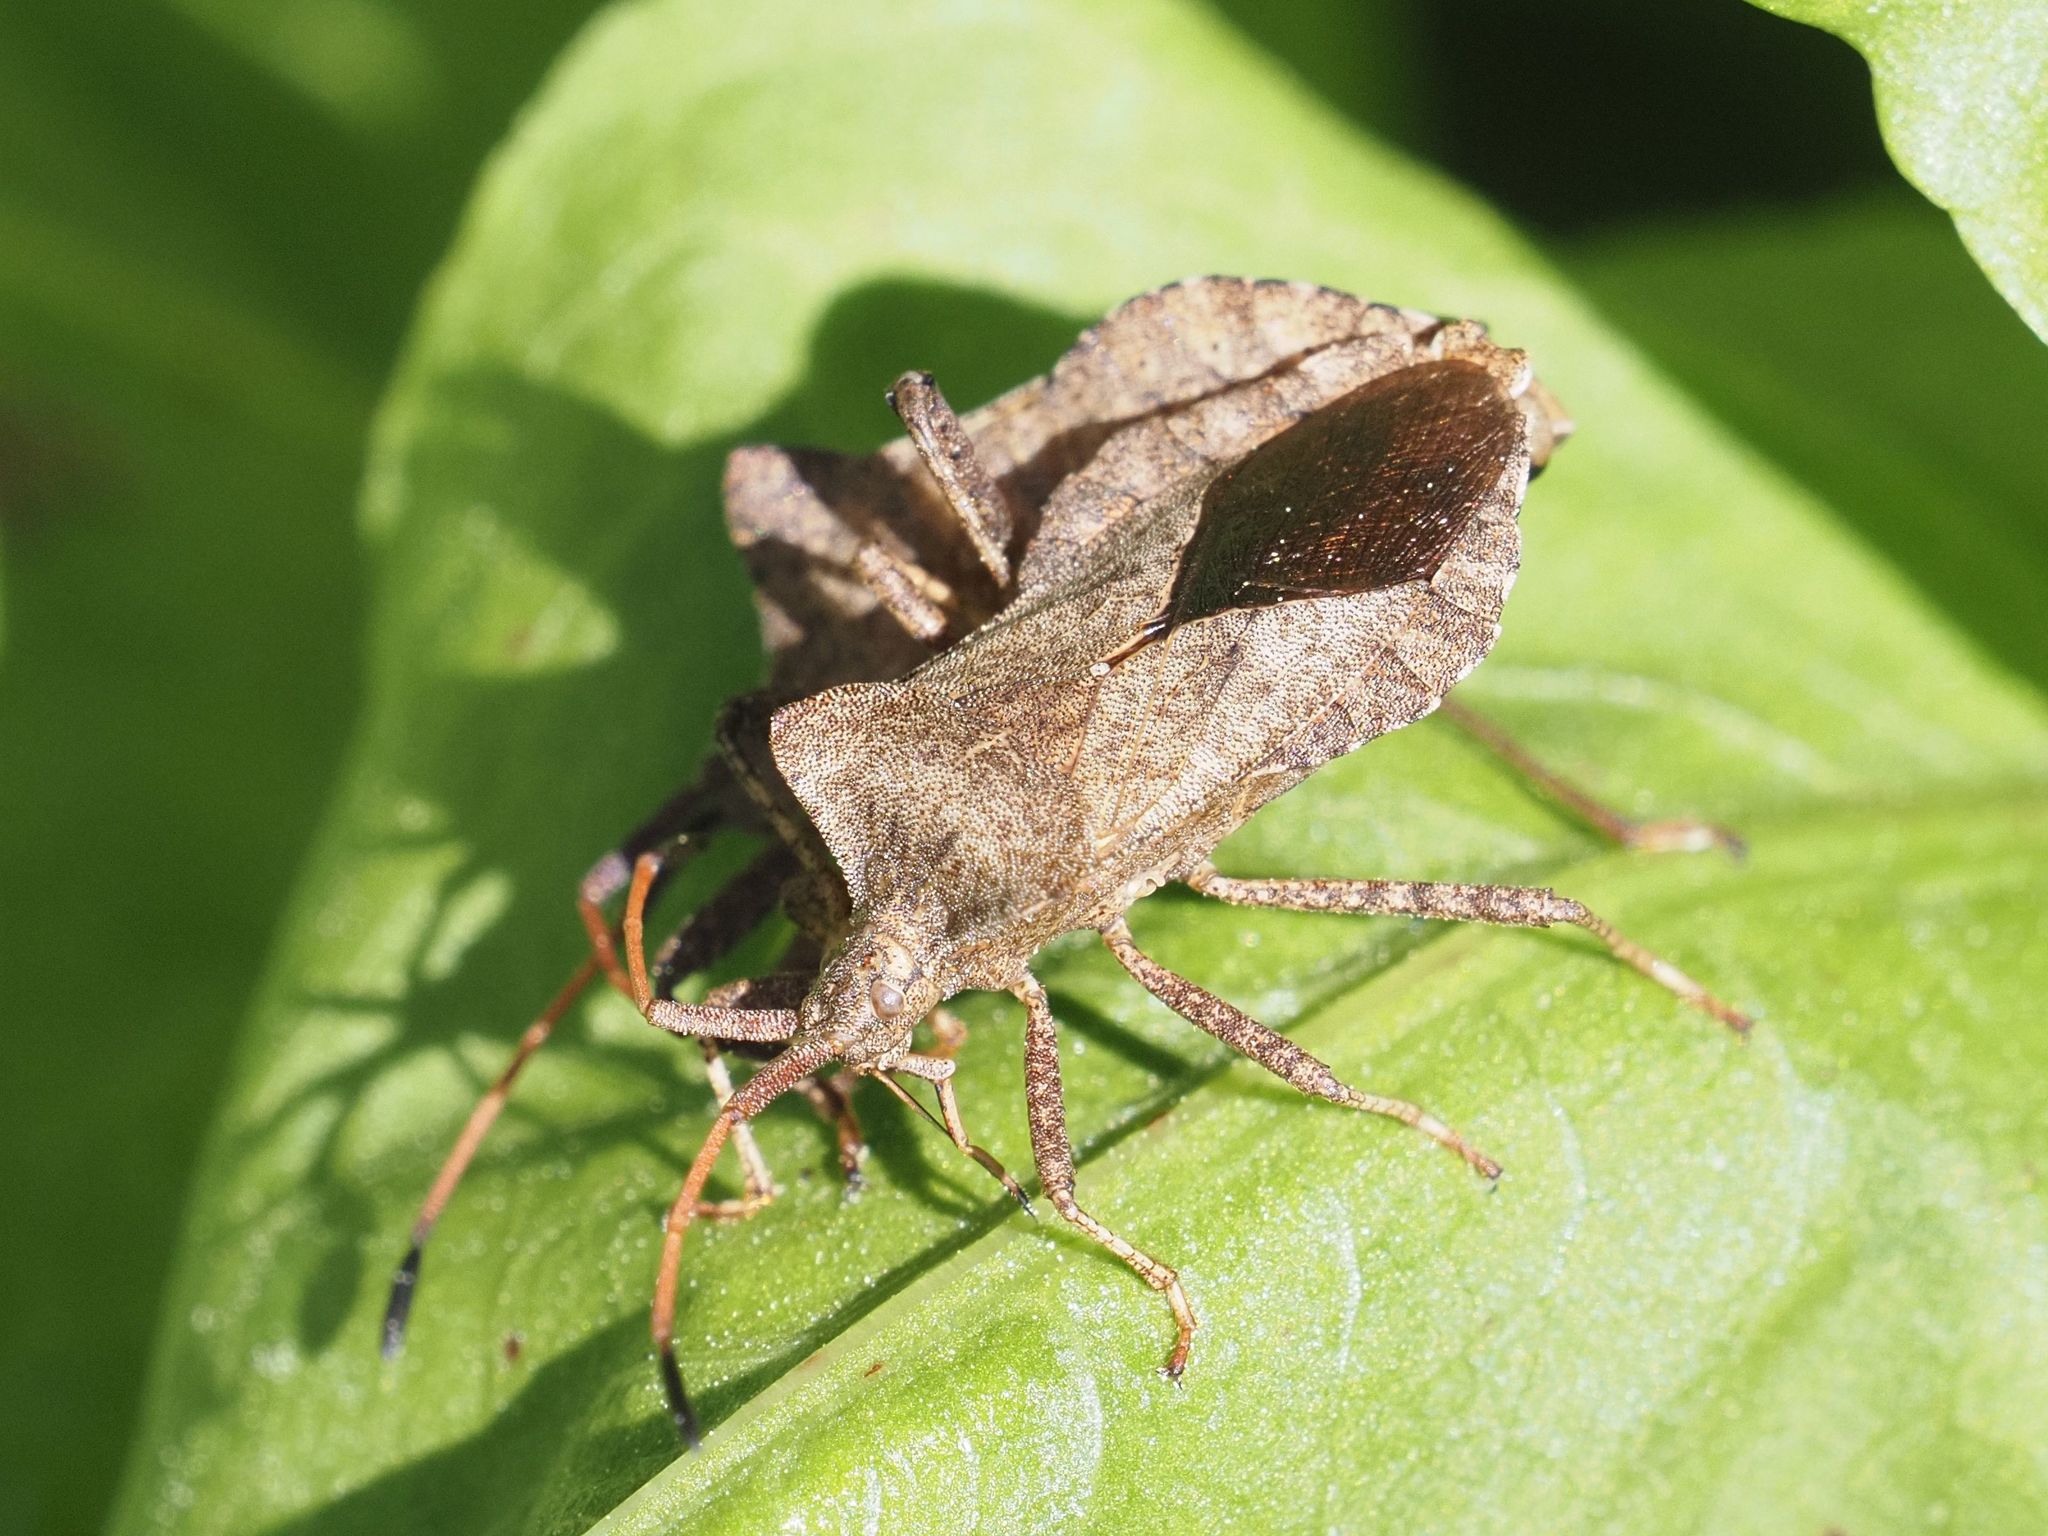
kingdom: Animalia
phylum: Arthropoda
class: Insecta
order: Hemiptera
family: Coreidae
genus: Coreus
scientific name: Coreus marginatus
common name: Dock bug
